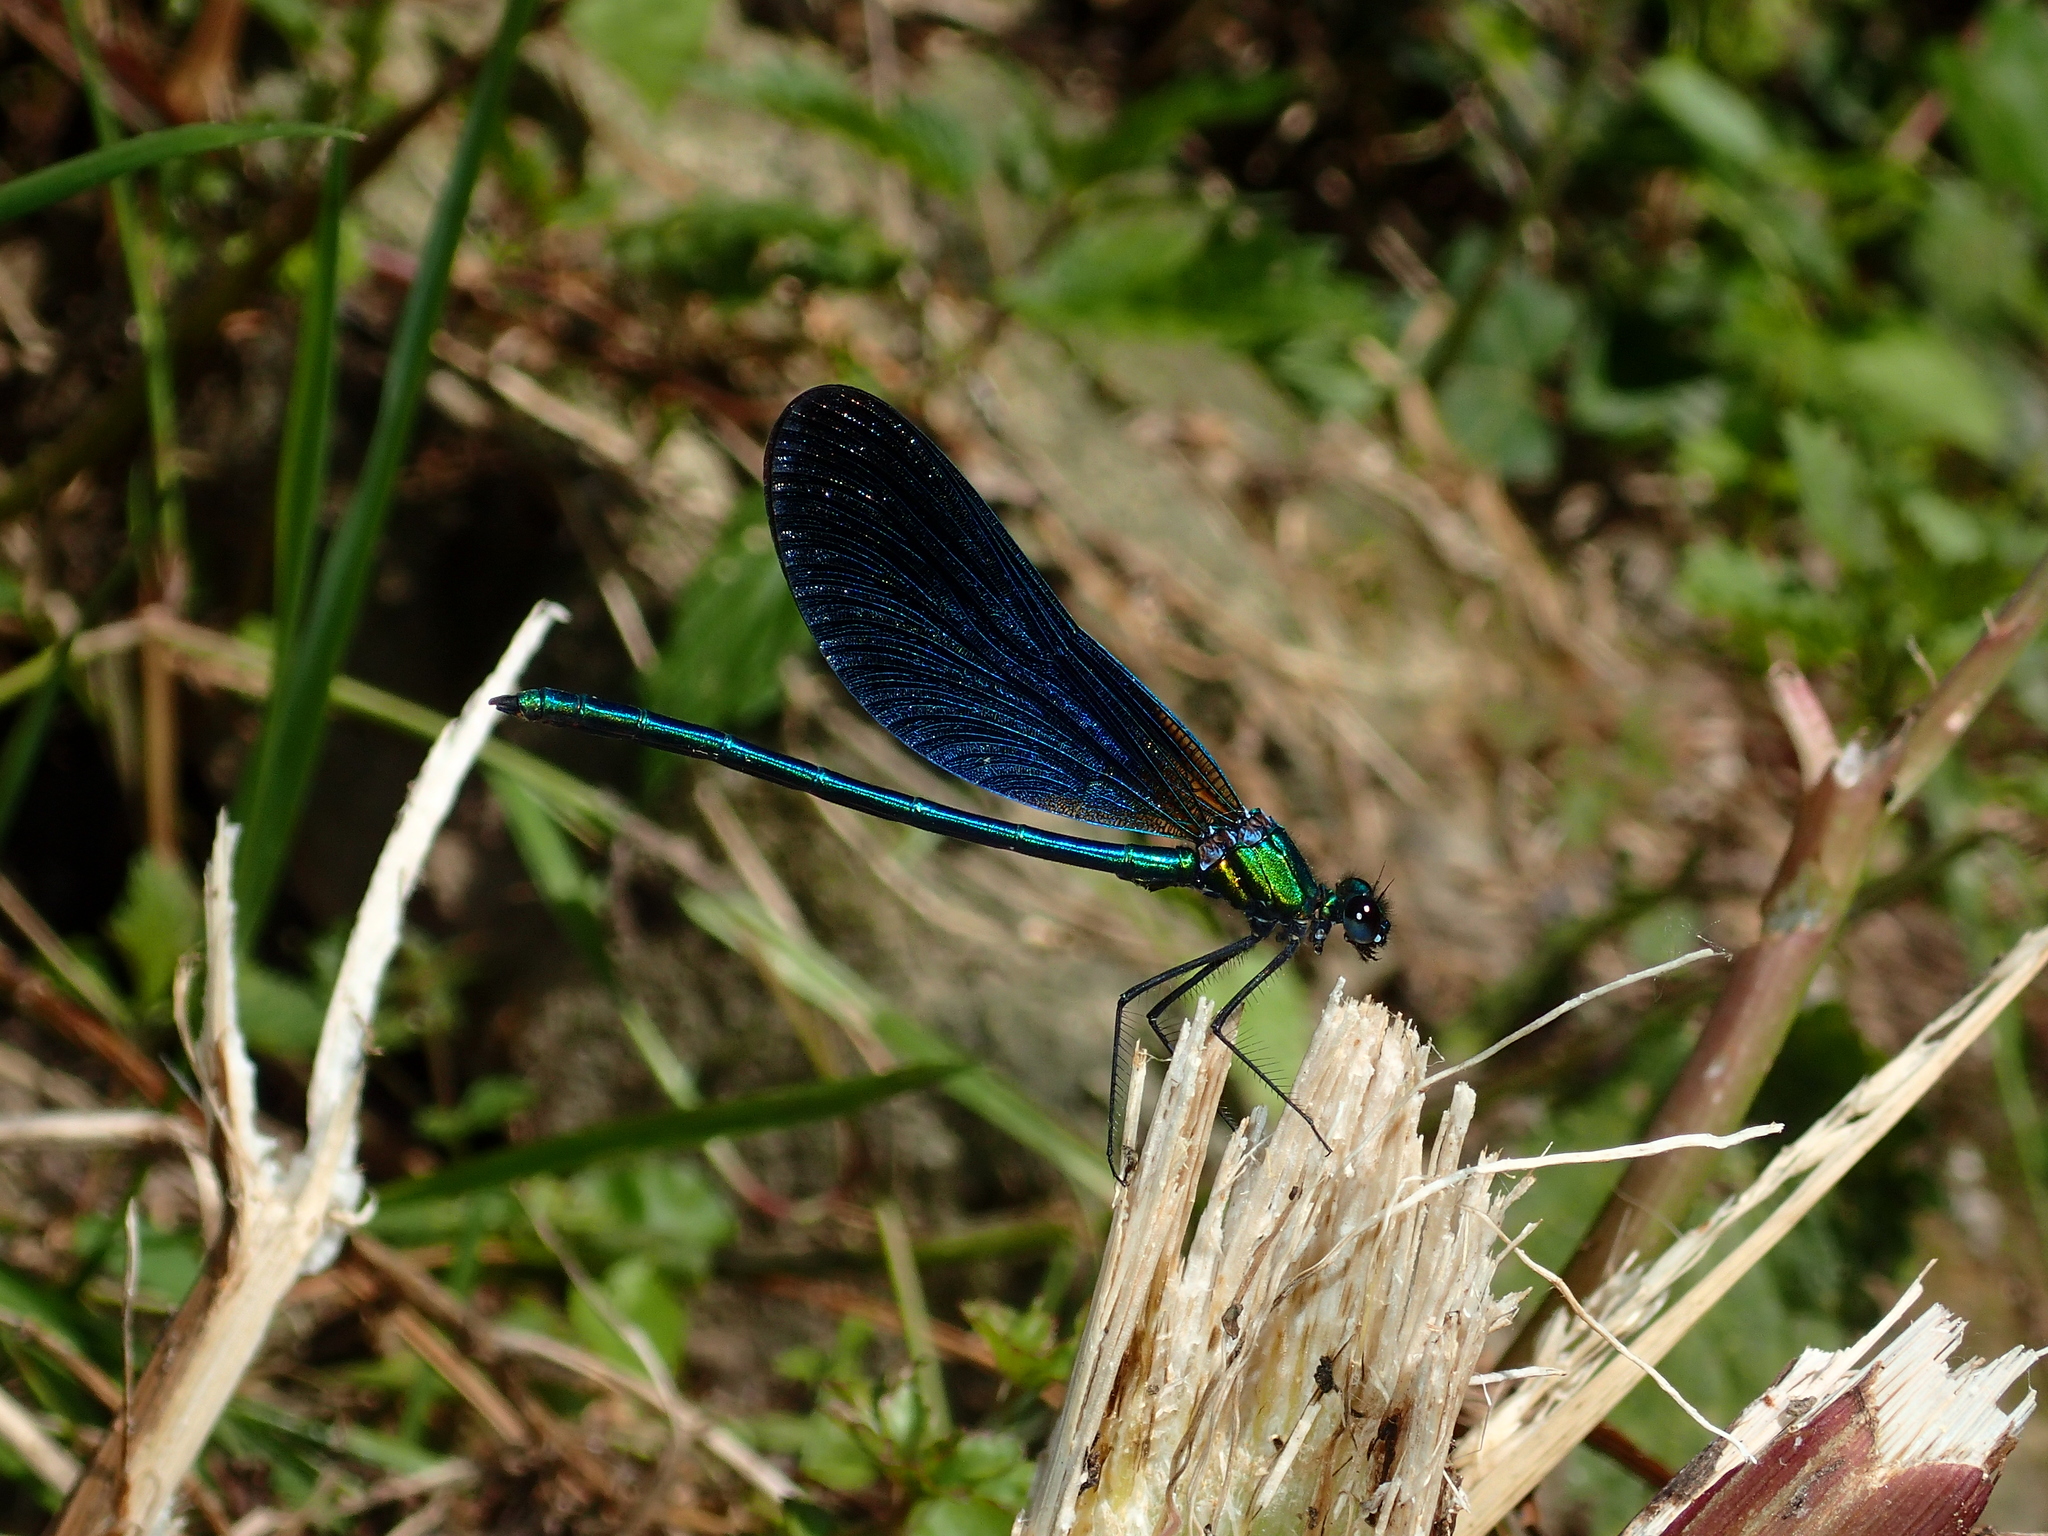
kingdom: Animalia
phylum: Arthropoda
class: Insecta
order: Odonata
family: Calopterygidae
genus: Calopteryx
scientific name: Calopteryx virgo
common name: Beautiful demoiselle
